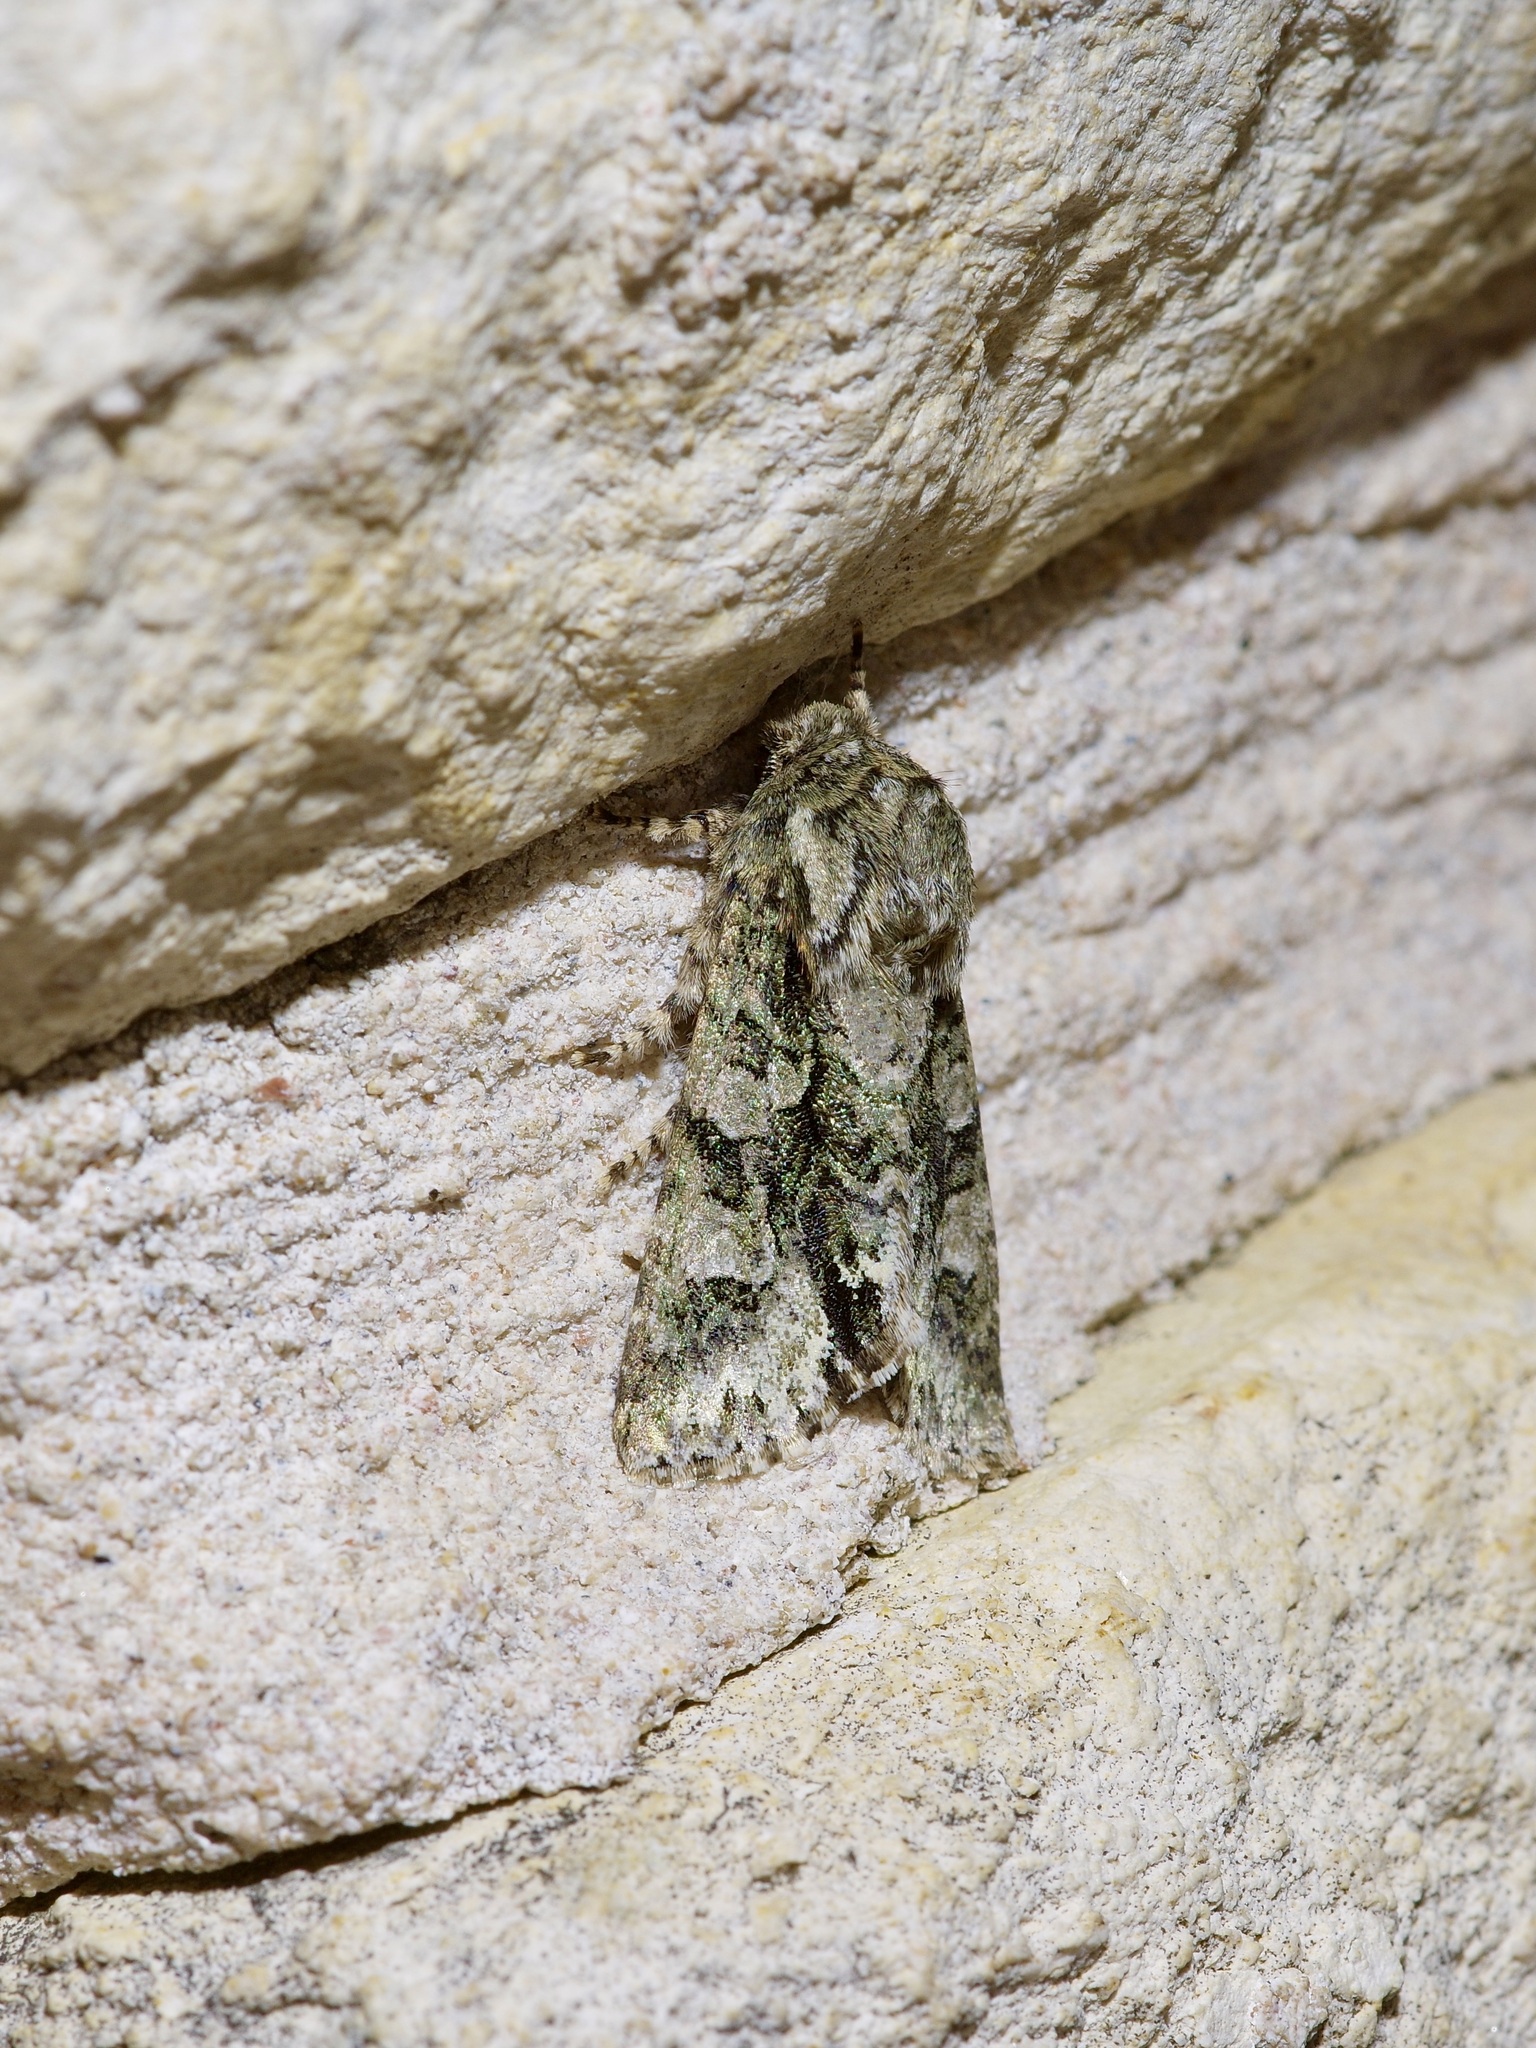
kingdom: Animalia
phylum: Arthropoda
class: Insecta
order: Lepidoptera
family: Noctuidae
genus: Psaphida
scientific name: Psaphida resumens
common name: Figure-eight sallow
